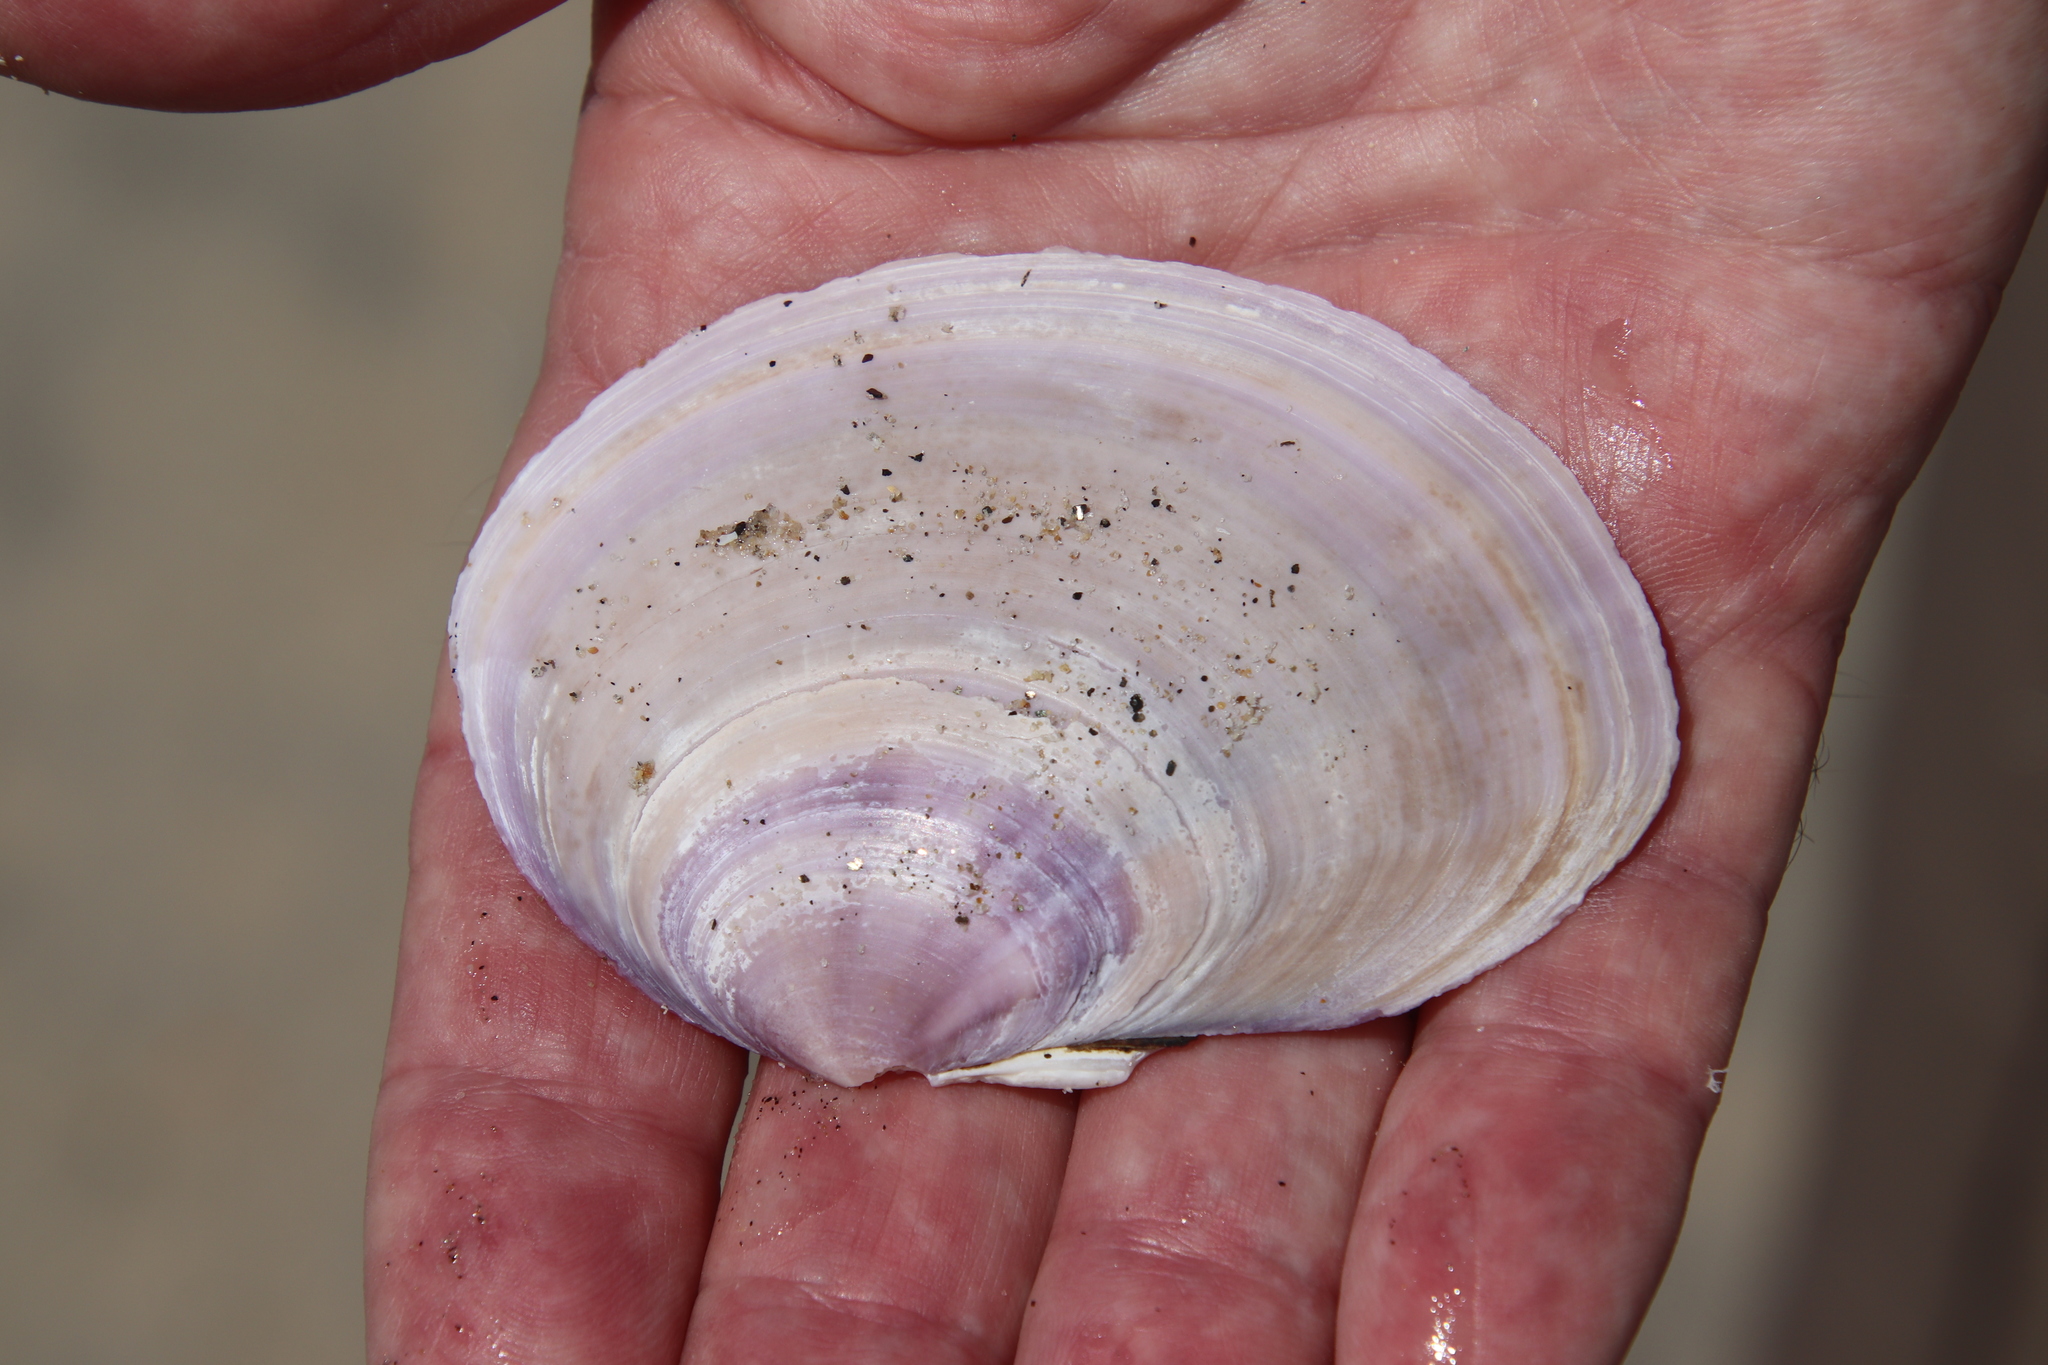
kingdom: Animalia
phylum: Mollusca
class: Bivalvia
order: Cardiida
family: Psammobiidae
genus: Nuttallia
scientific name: Nuttallia nuttallii
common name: California mahogany-clam
